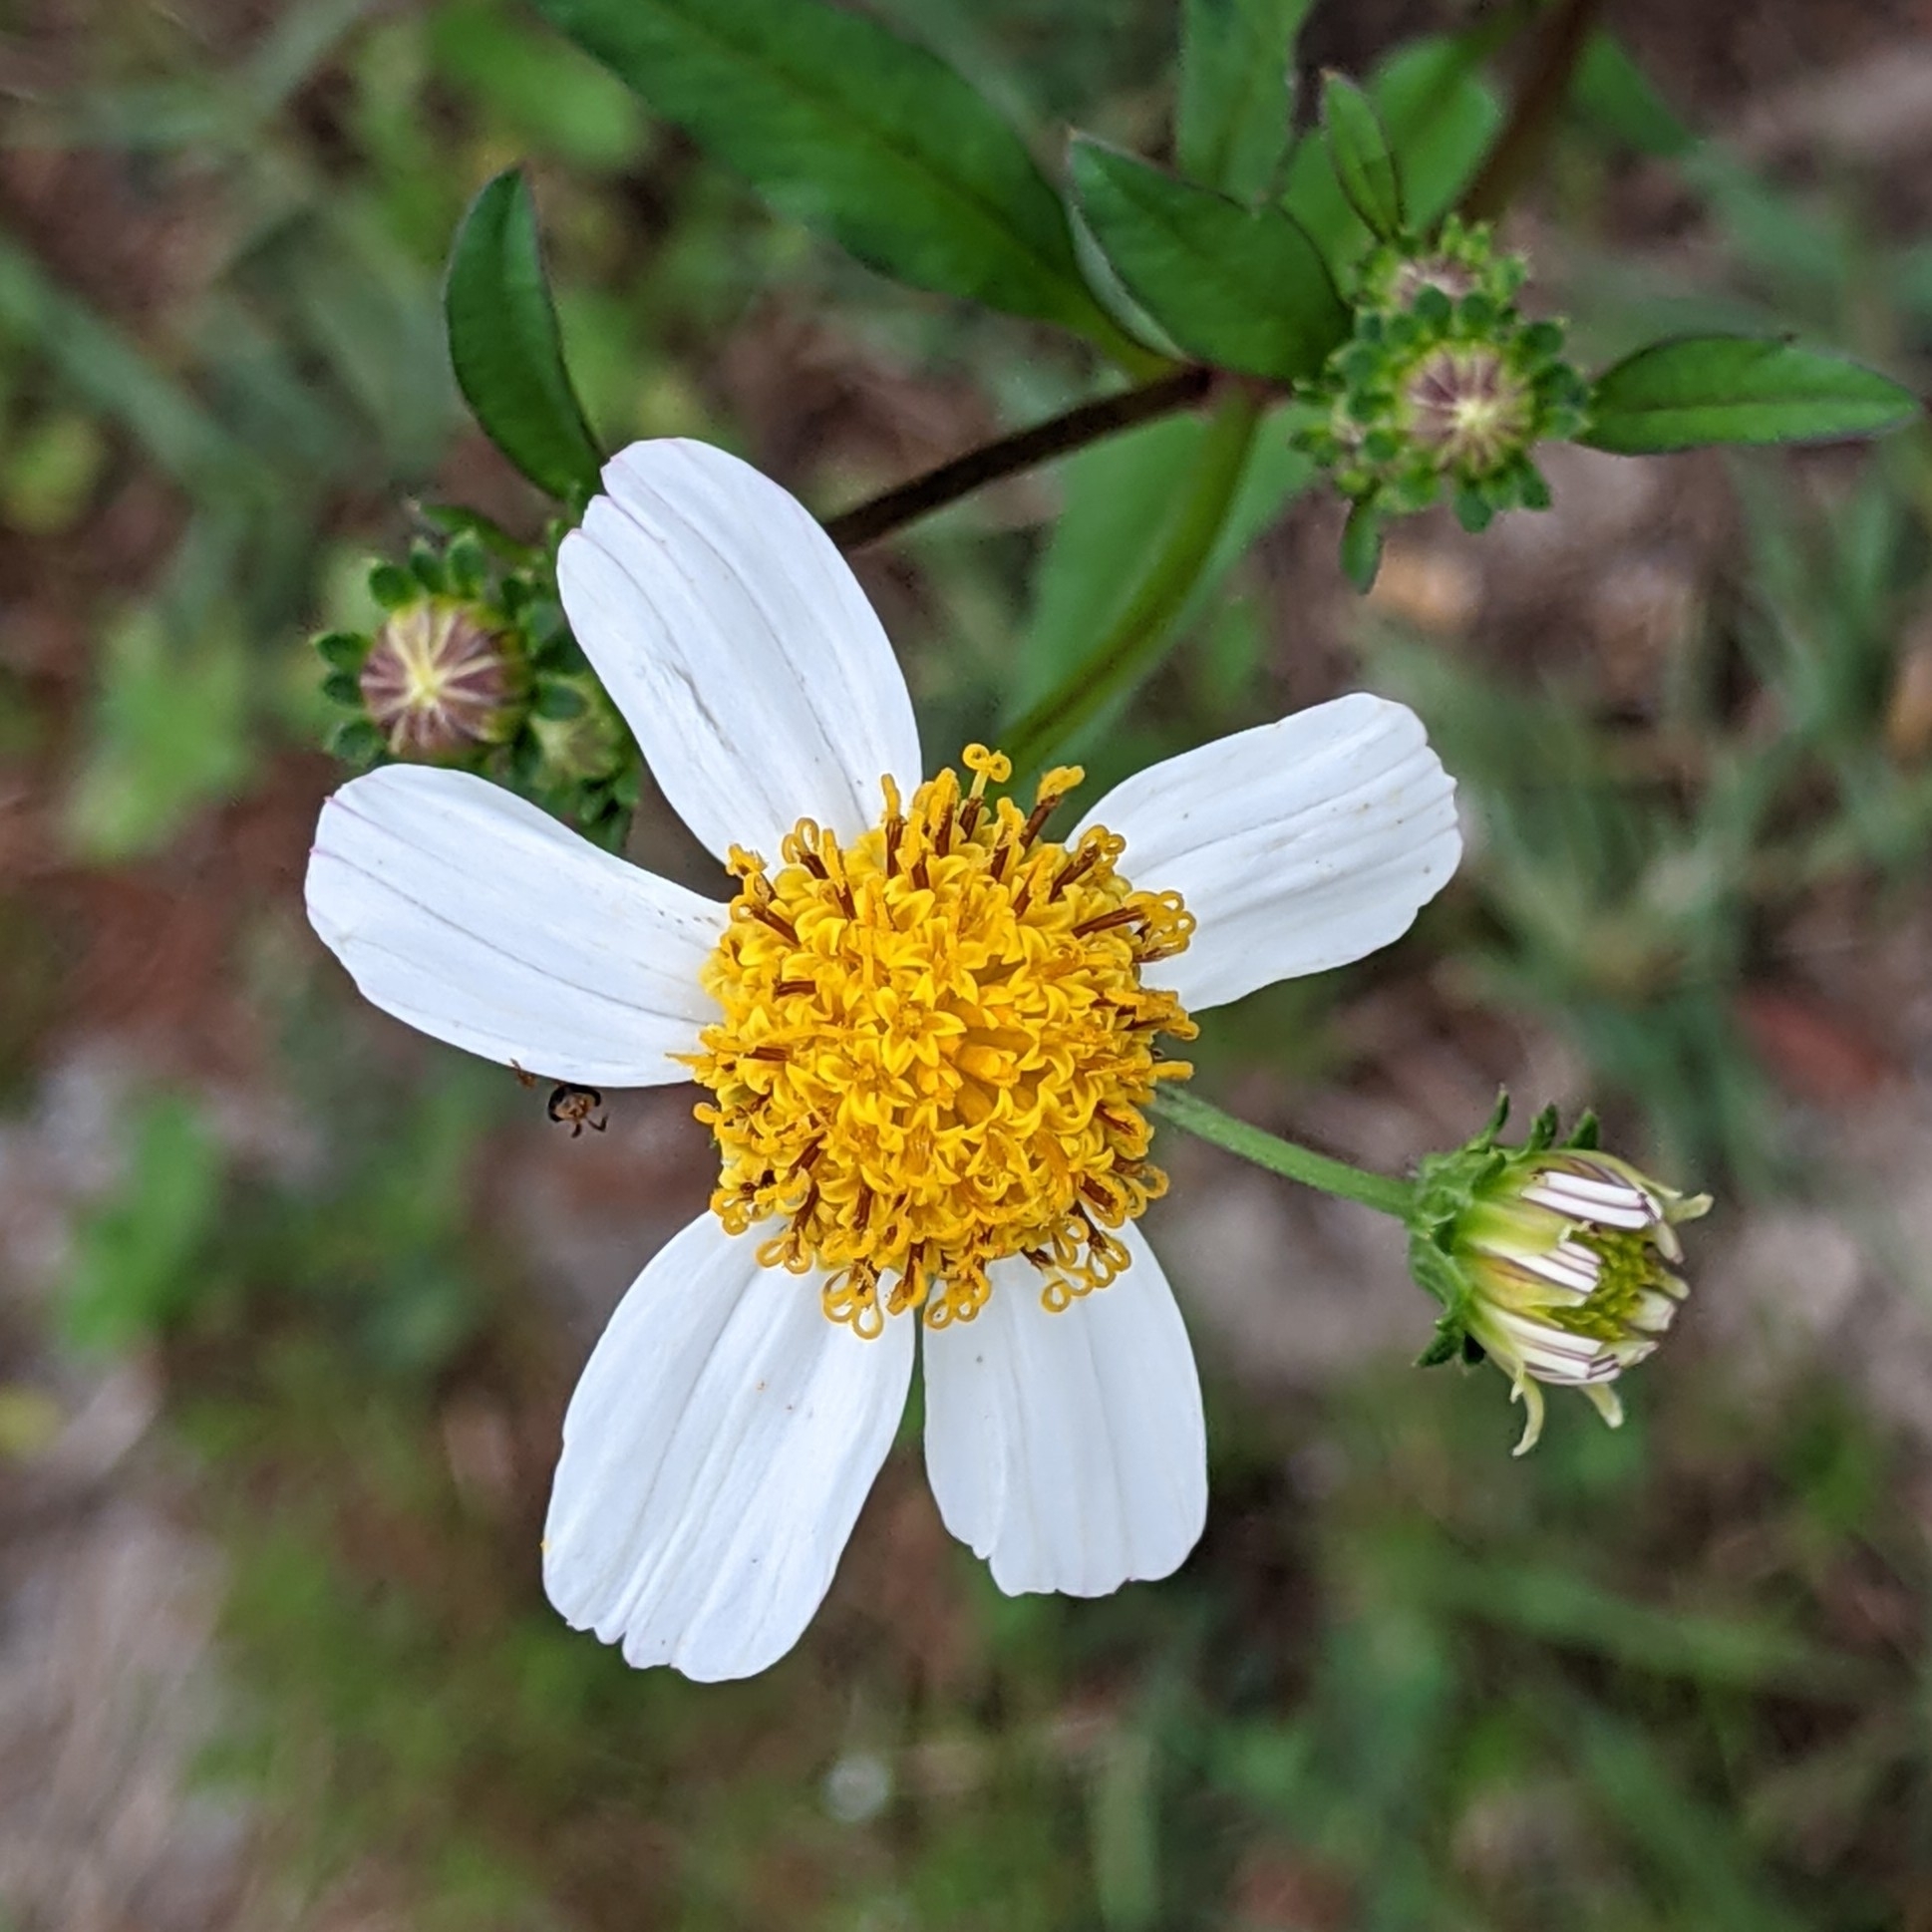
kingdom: Plantae
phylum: Tracheophyta
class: Magnoliopsida
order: Asterales
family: Asteraceae
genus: Bidens
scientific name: Bidens alba
